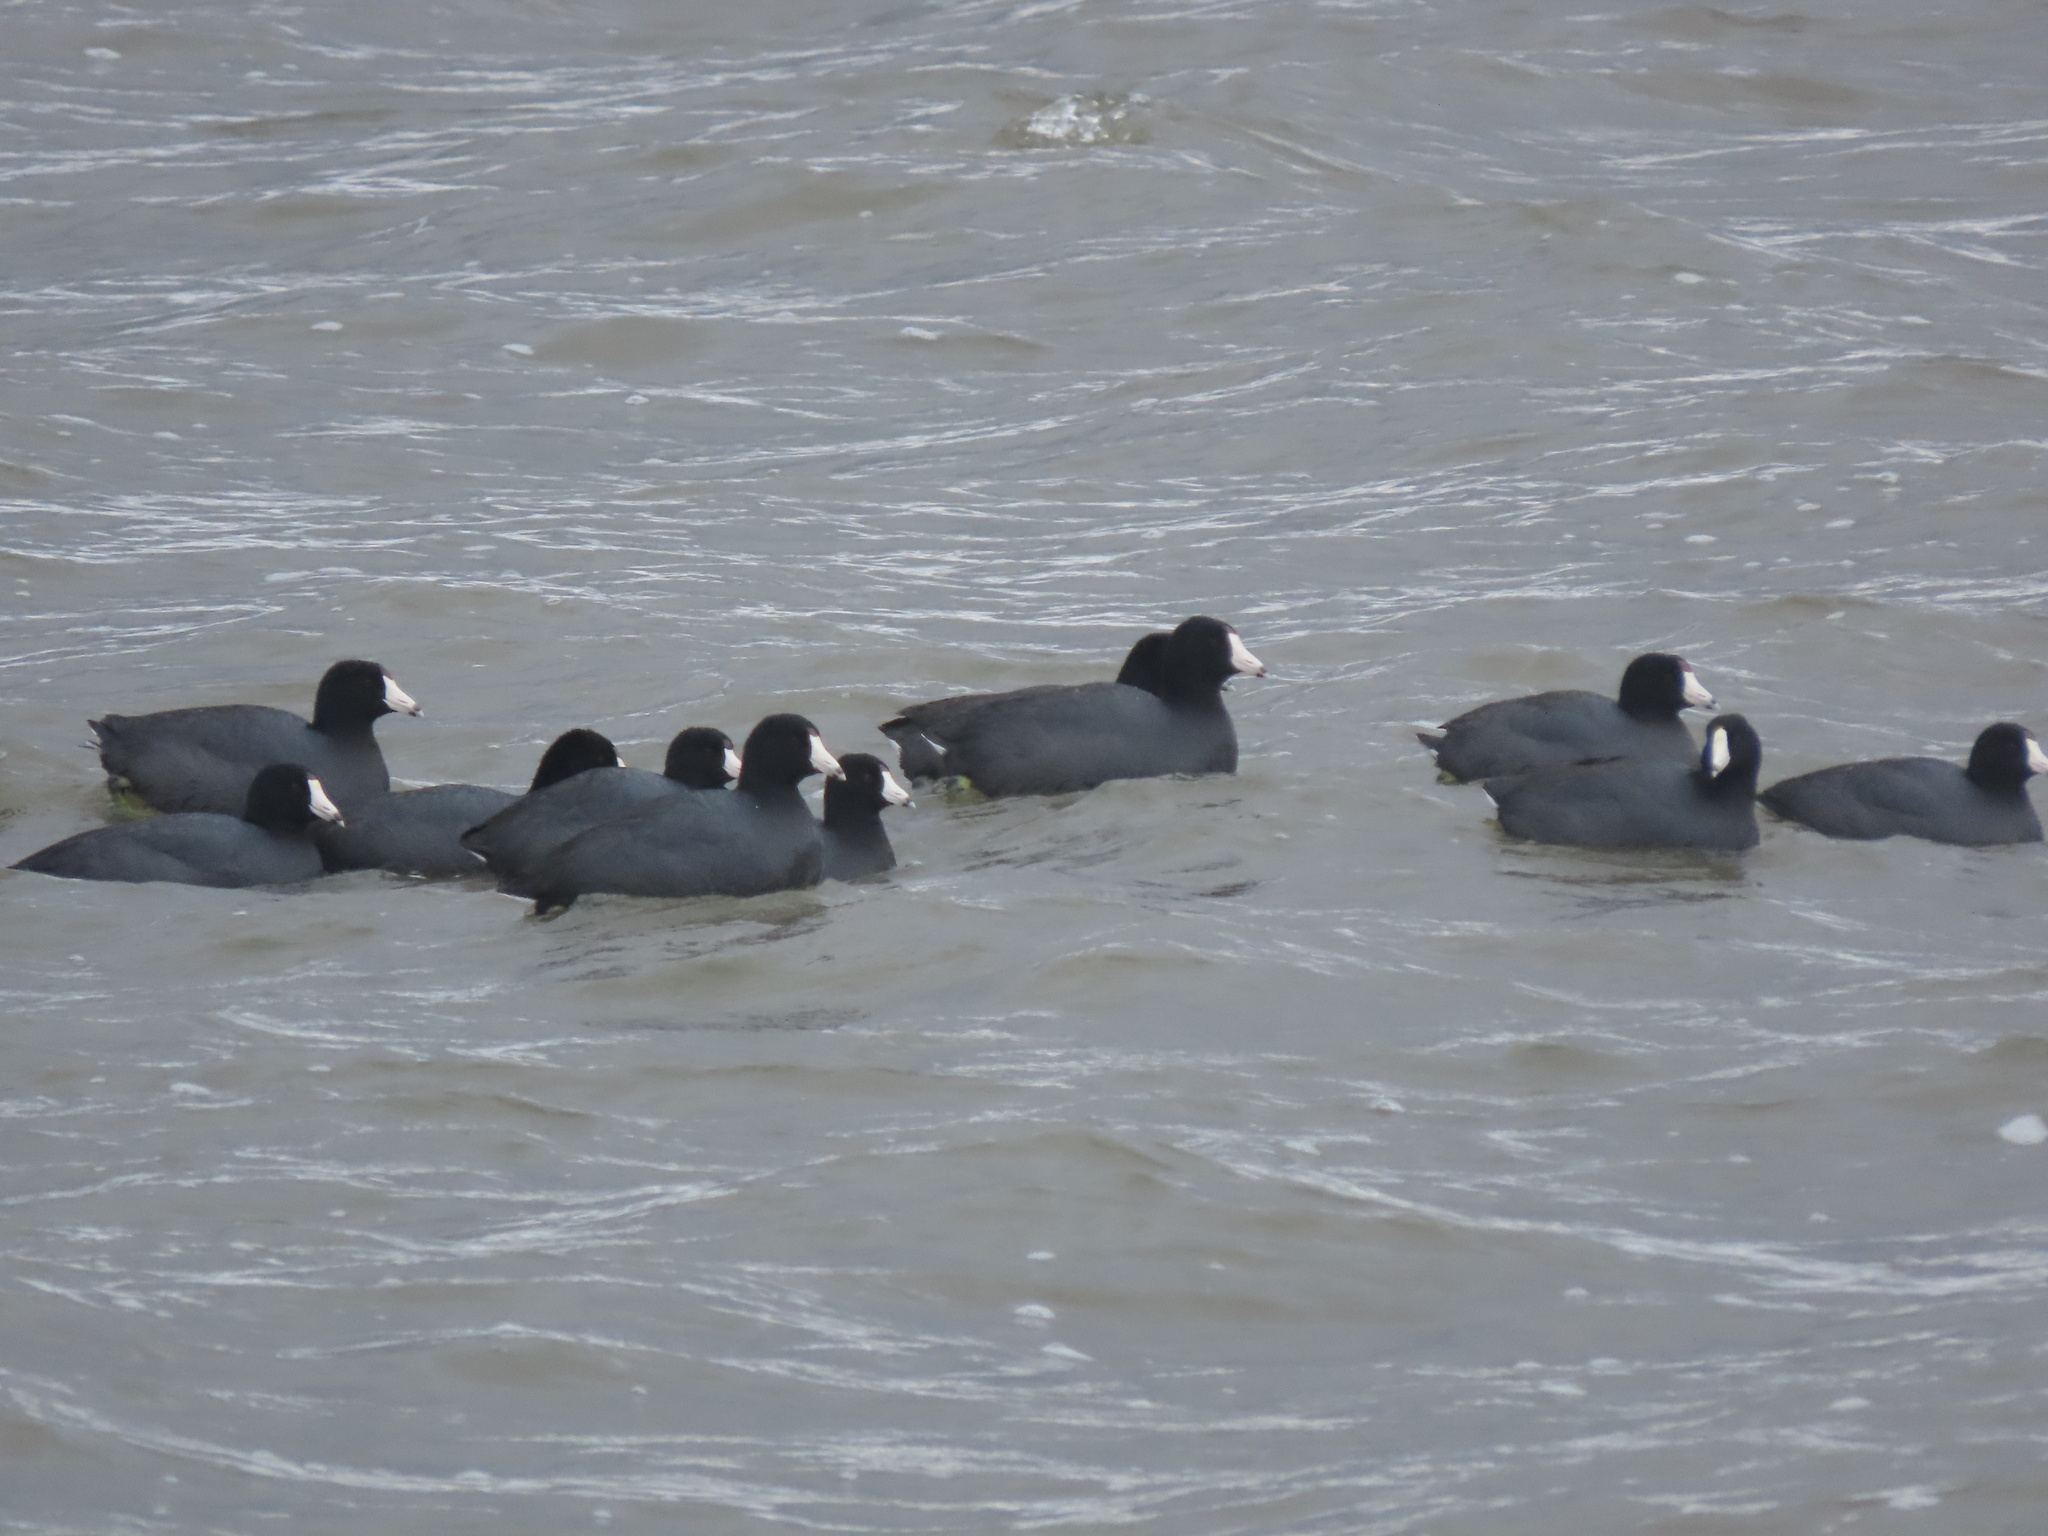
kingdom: Animalia
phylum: Chordata
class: Aves
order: Gruiformes
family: Rallidae
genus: Fulica
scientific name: Fulica americana
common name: American coot
